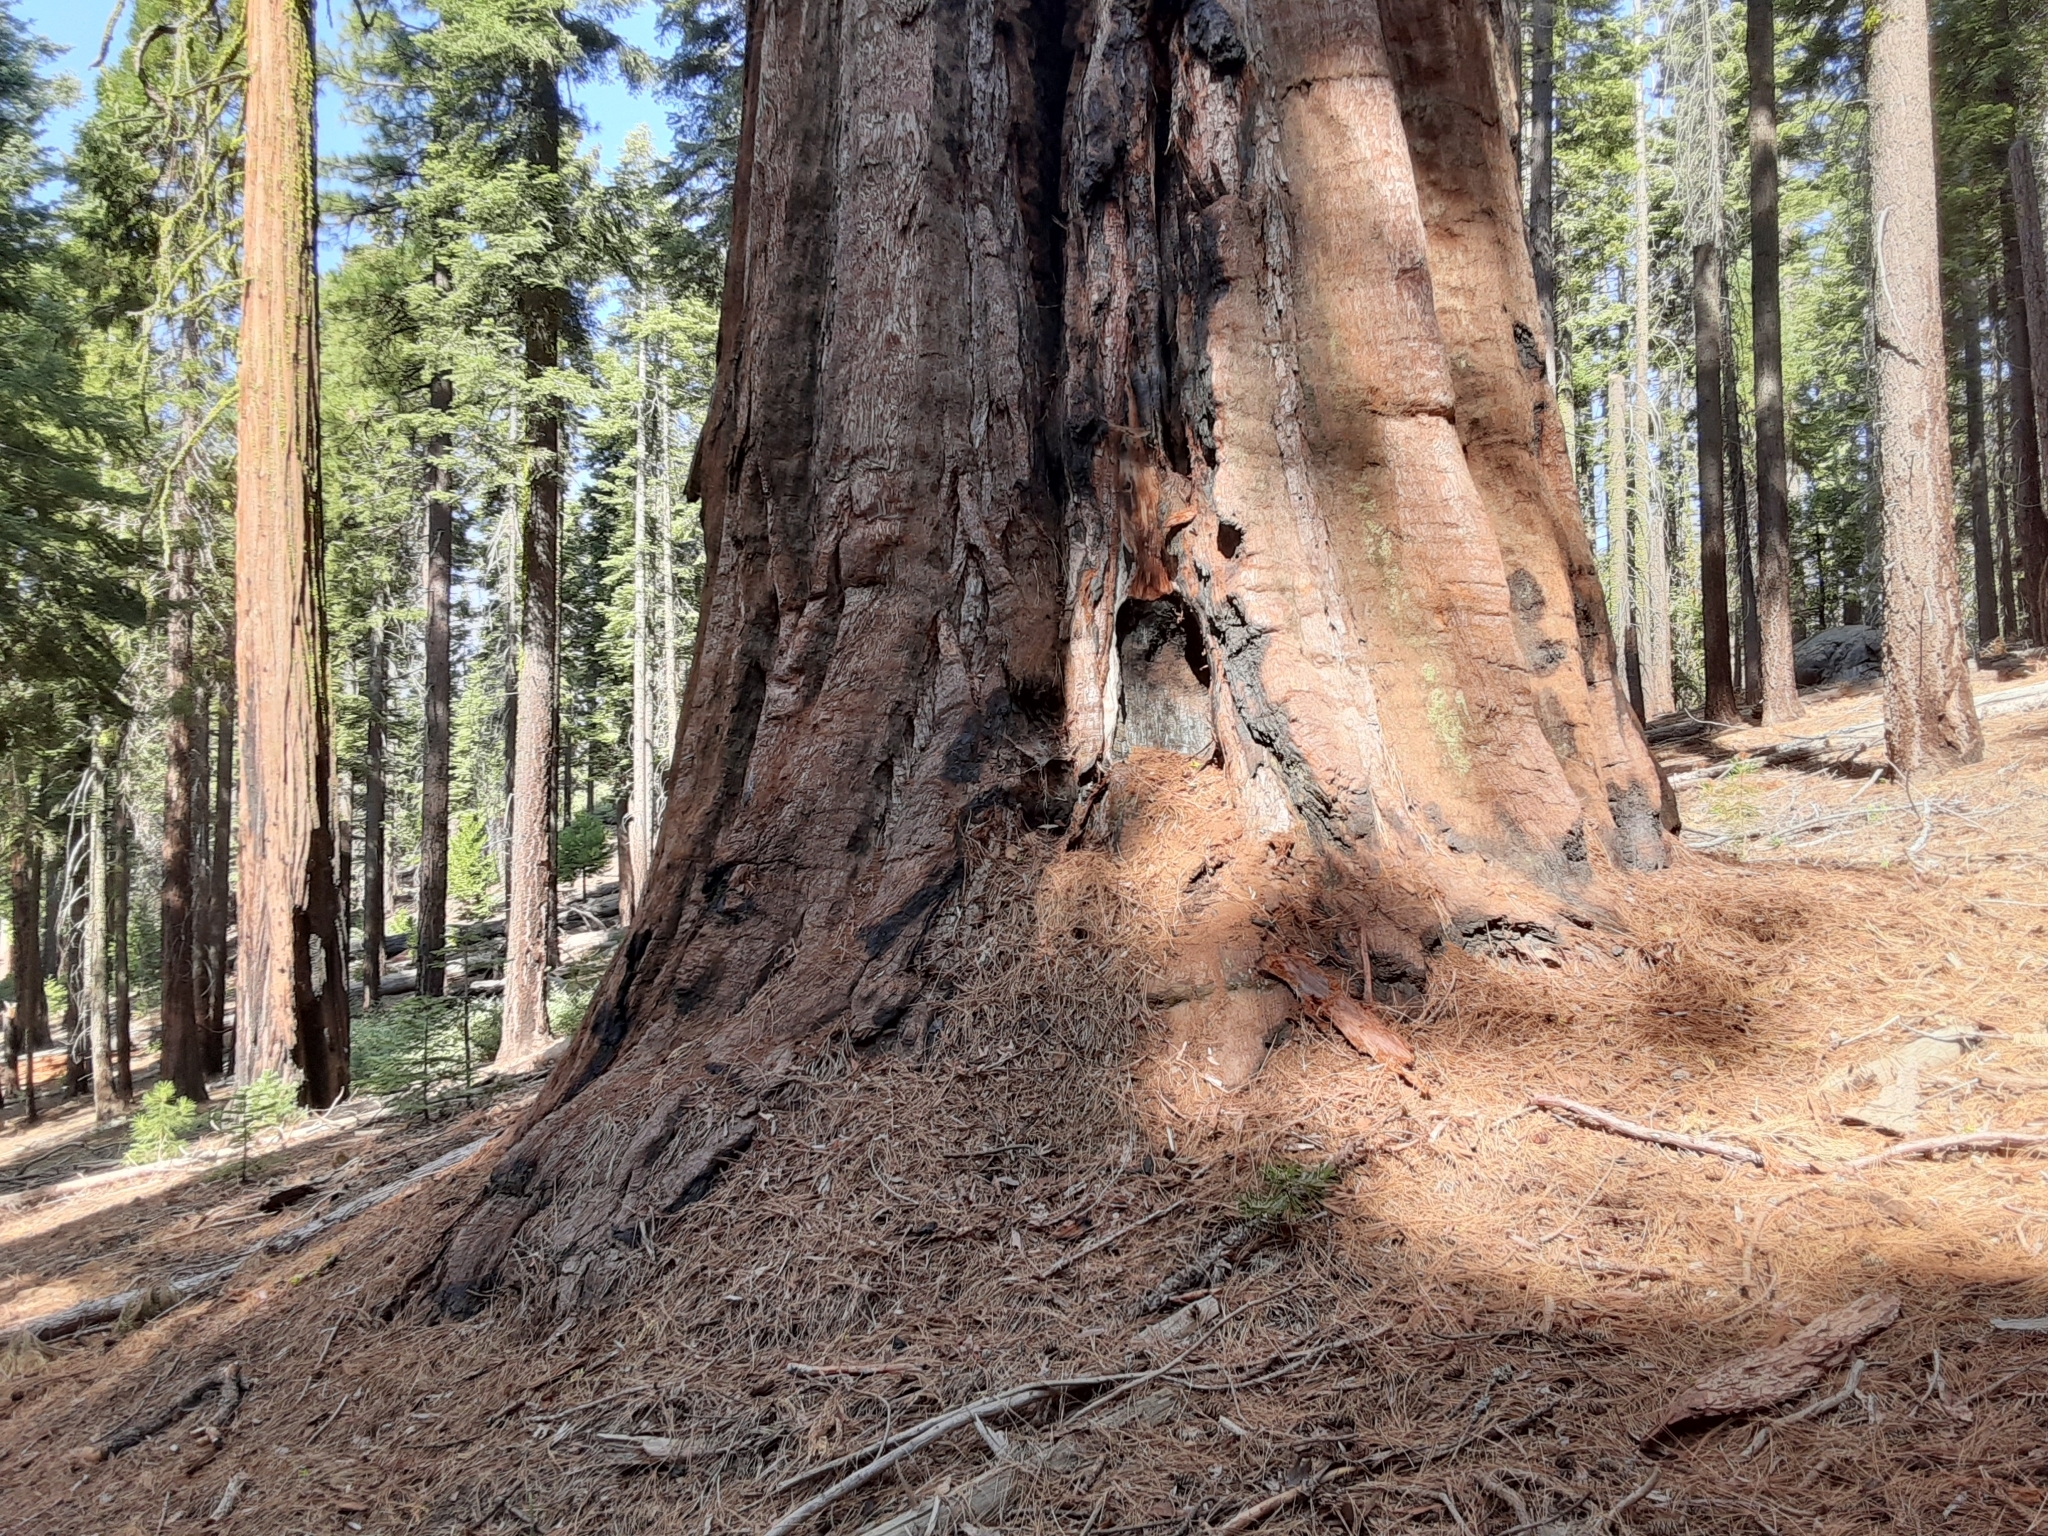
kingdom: Plantae
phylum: Tracheophyta
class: Pinopsida
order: Pinales
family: Cupressaceae
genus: Sequoiadendron
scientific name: Sequoiadendron giganteum
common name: Wellingtonia
